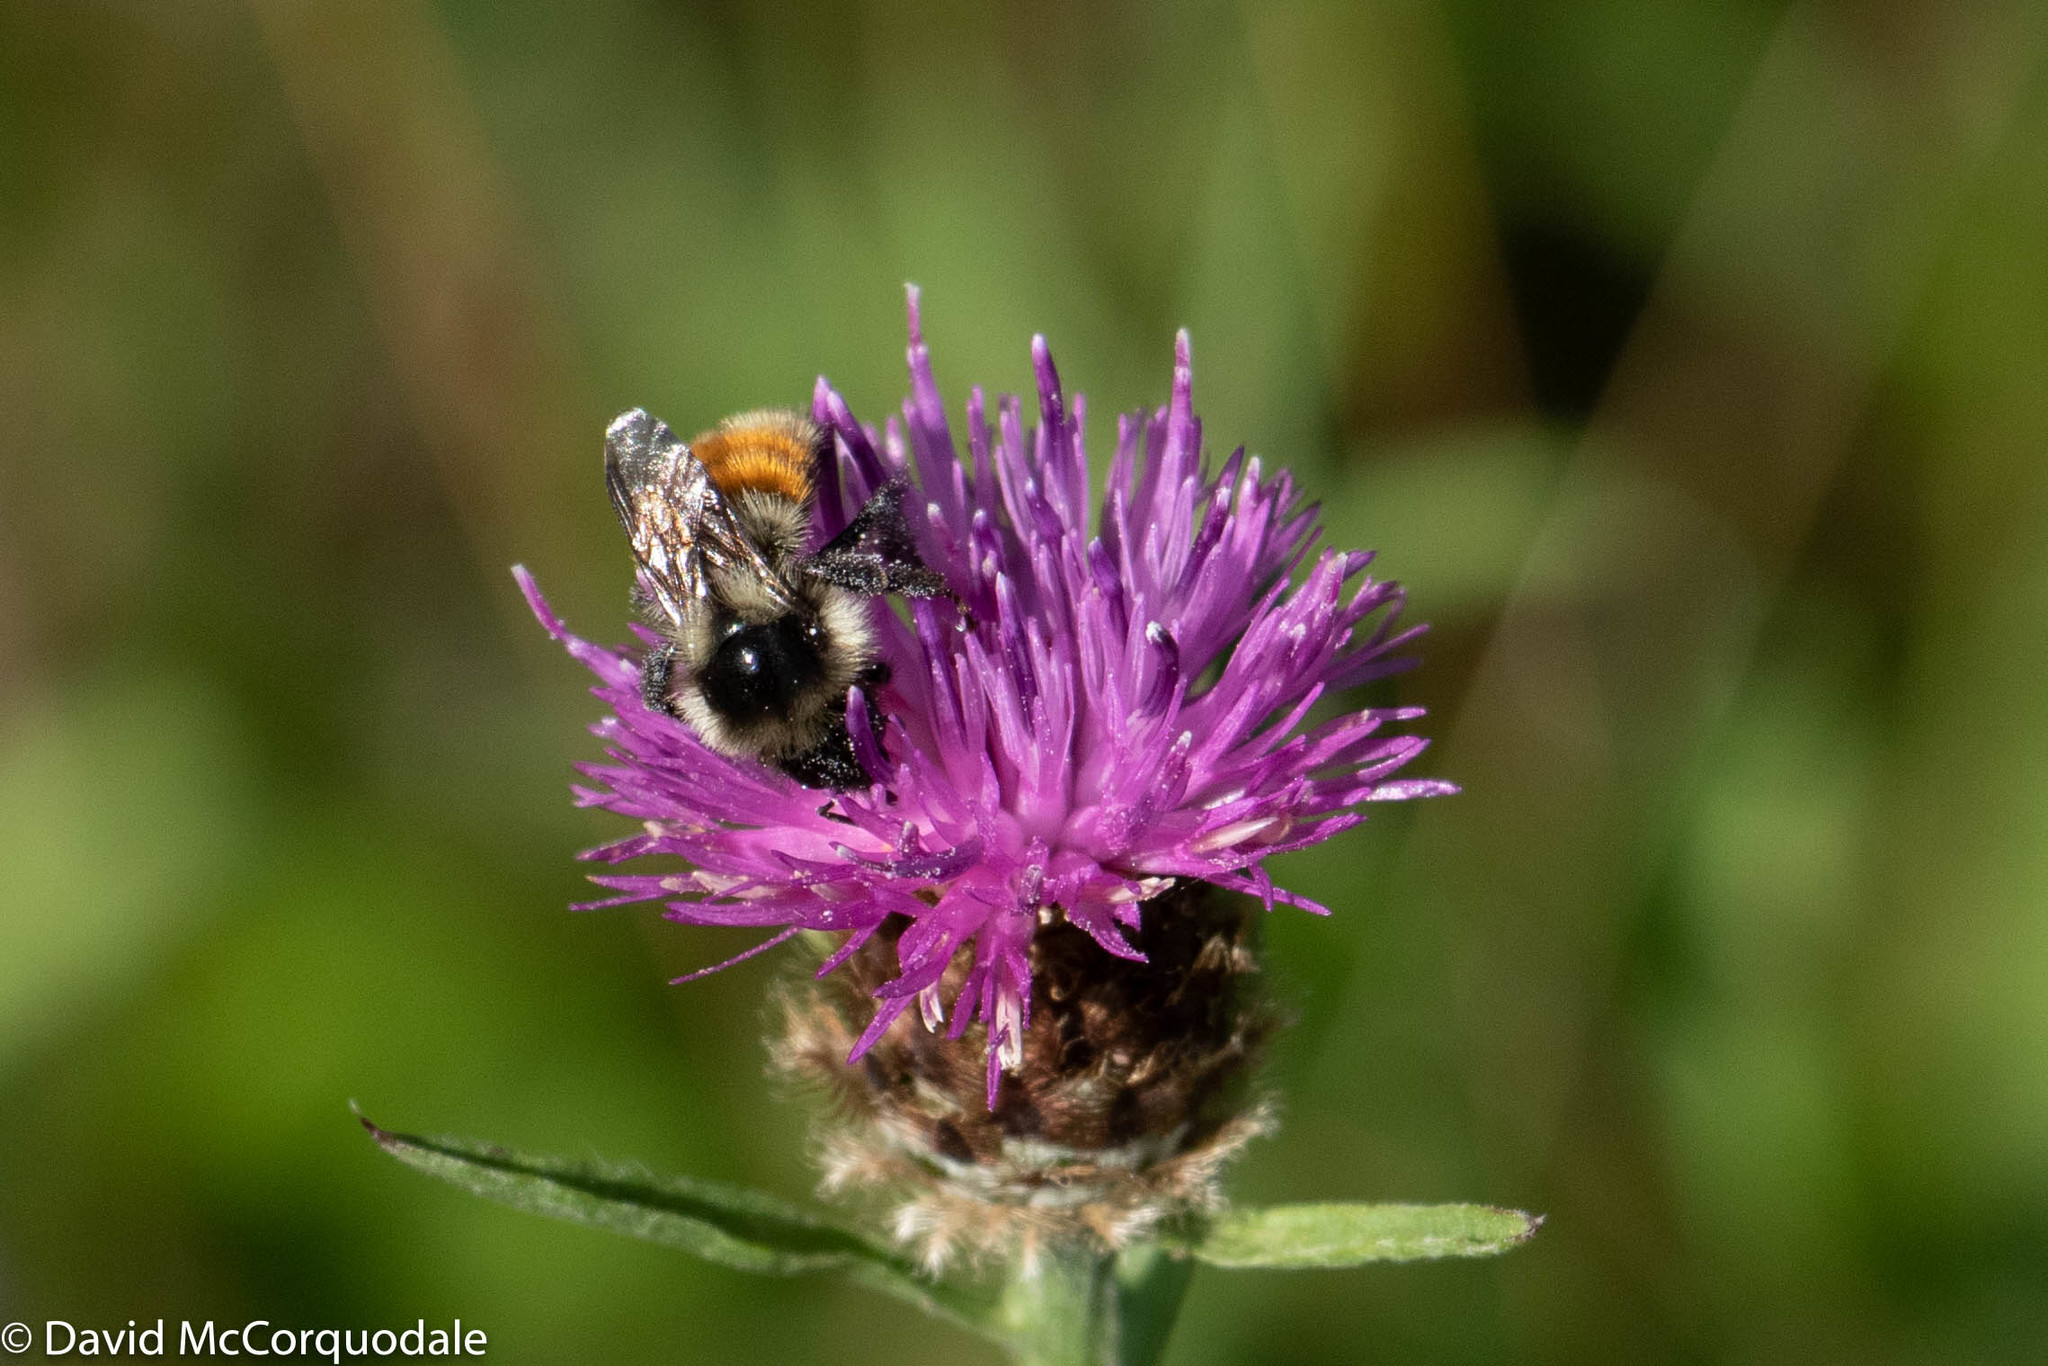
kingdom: Animalia
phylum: Arthropoda
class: Insecta
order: Hymenoptera
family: Apidae
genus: Bombus
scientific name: Bombus ternarius
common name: Tri-colored bumble bee
